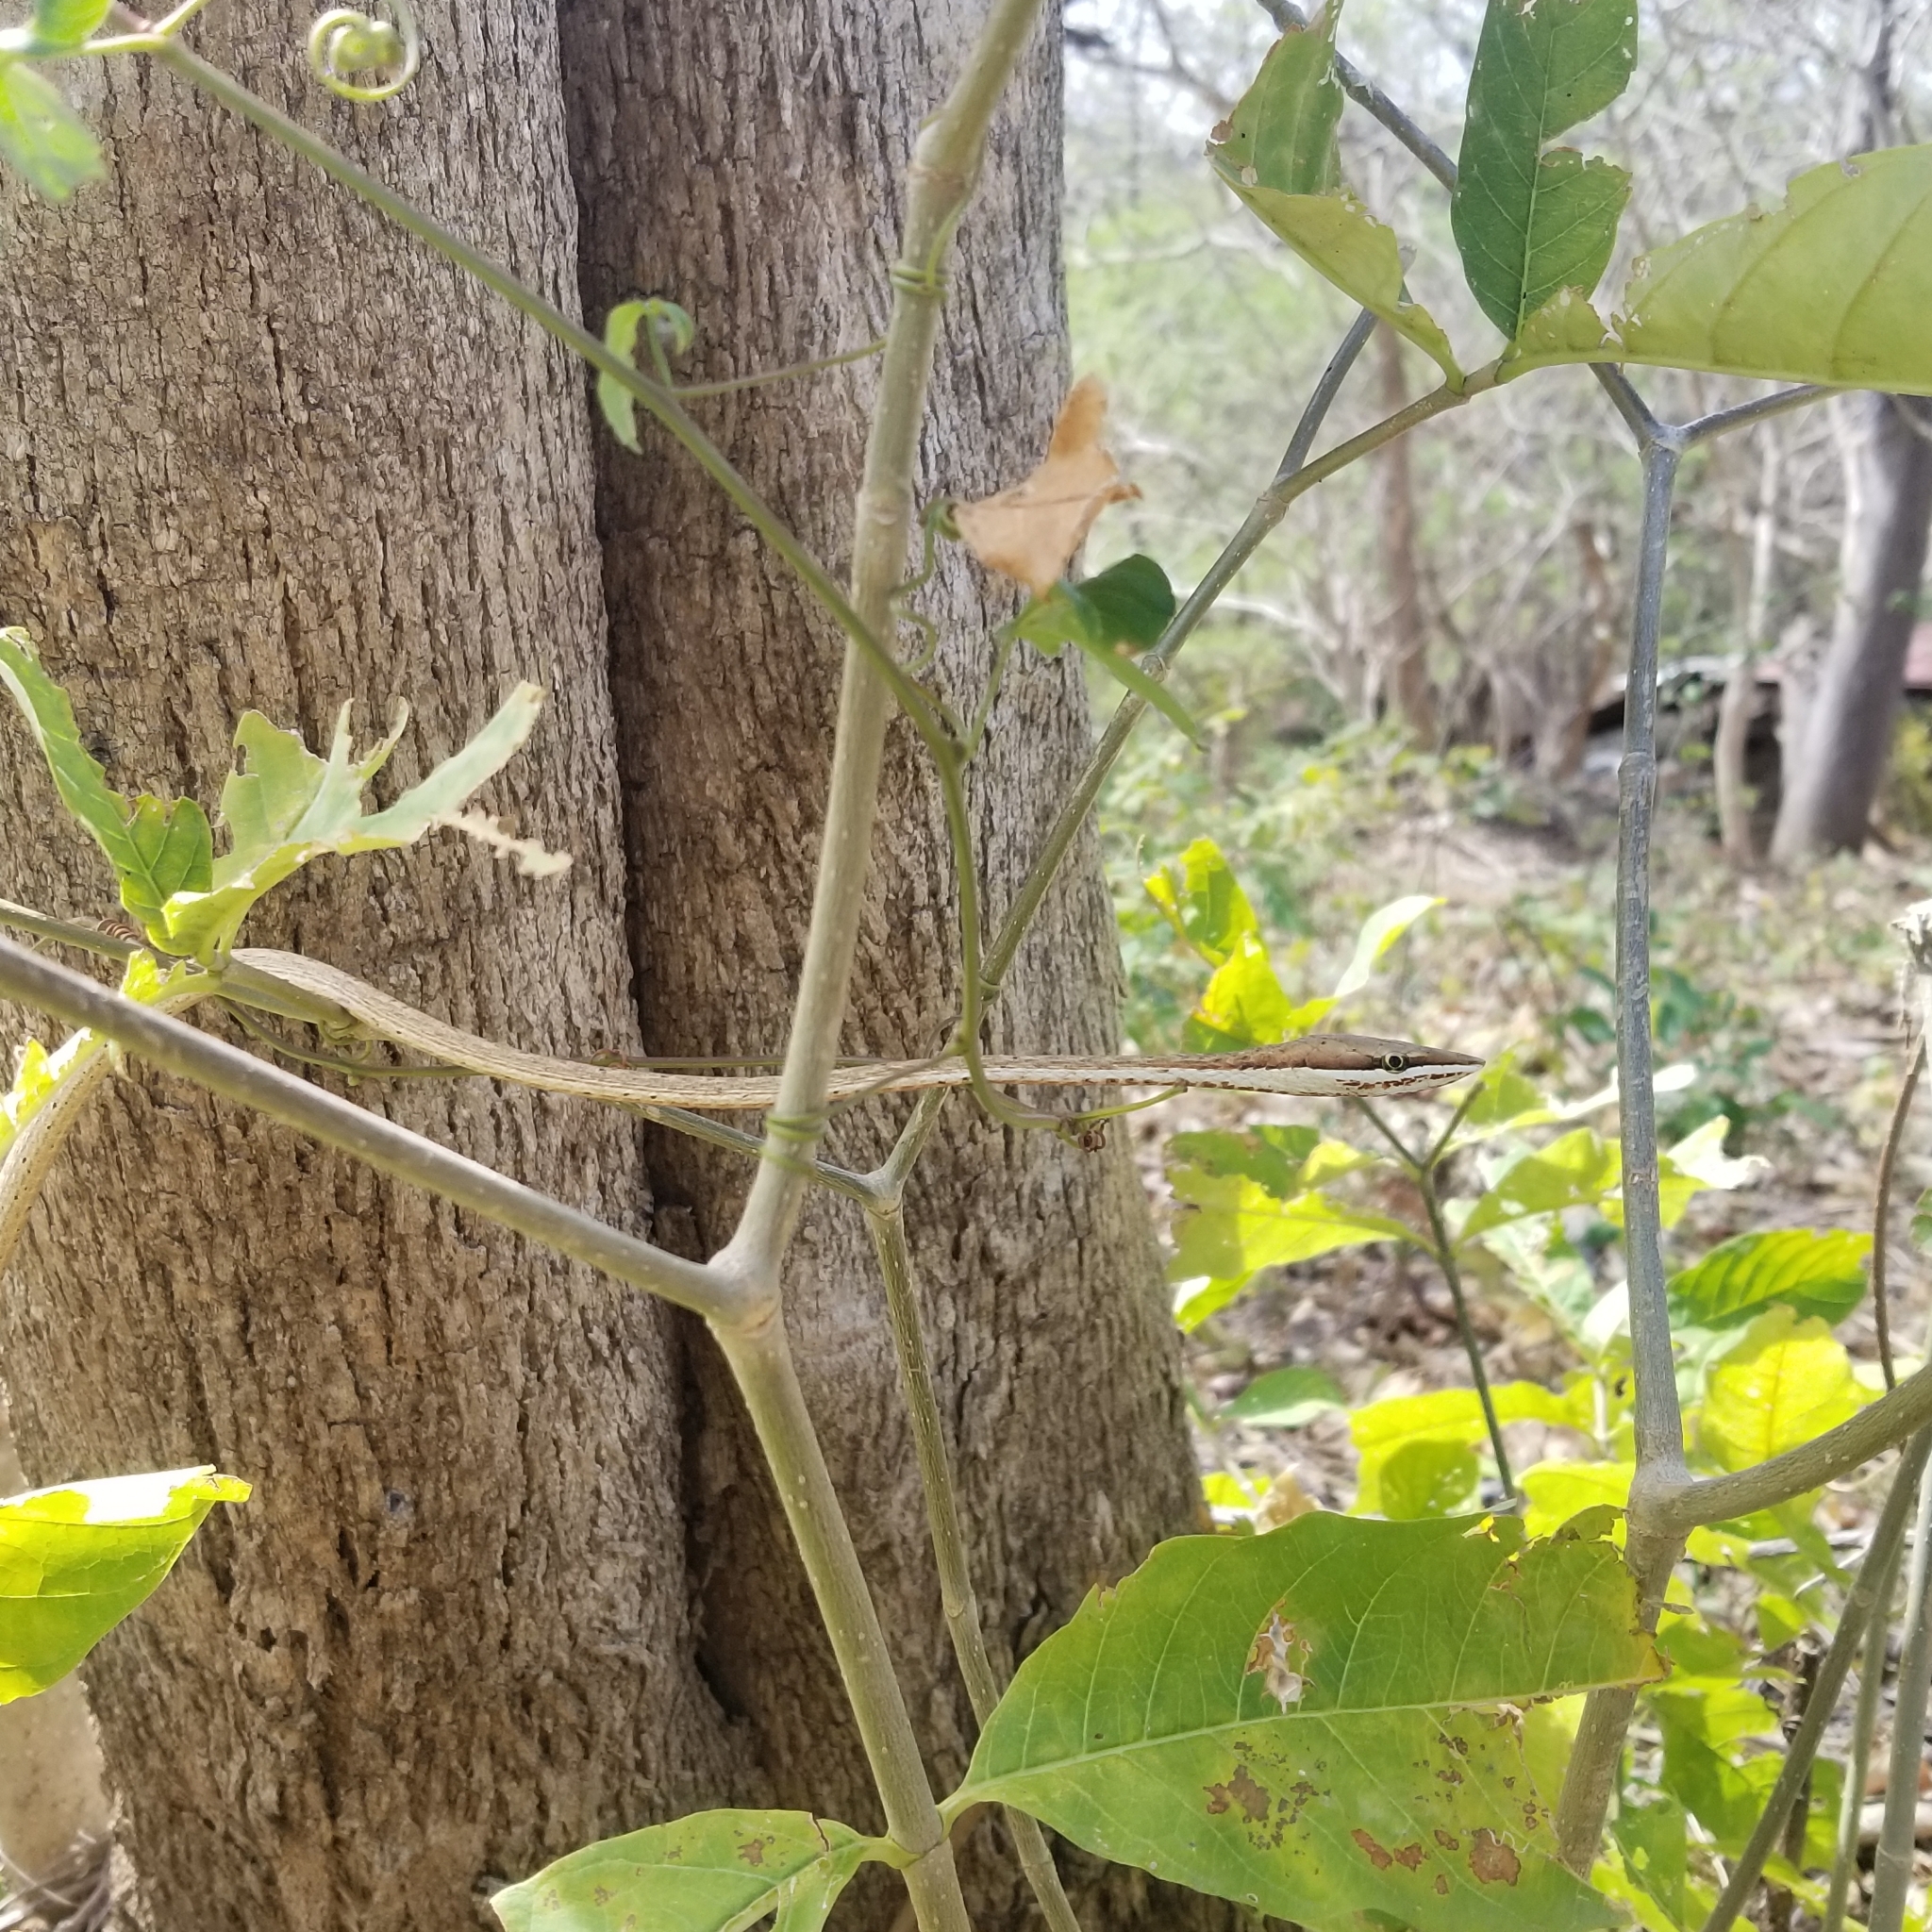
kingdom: Animalia
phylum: Chordata
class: Squamata
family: Colubridae
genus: Oxybelis
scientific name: Oxybelis koehleri
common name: Köhler’s vine snake
